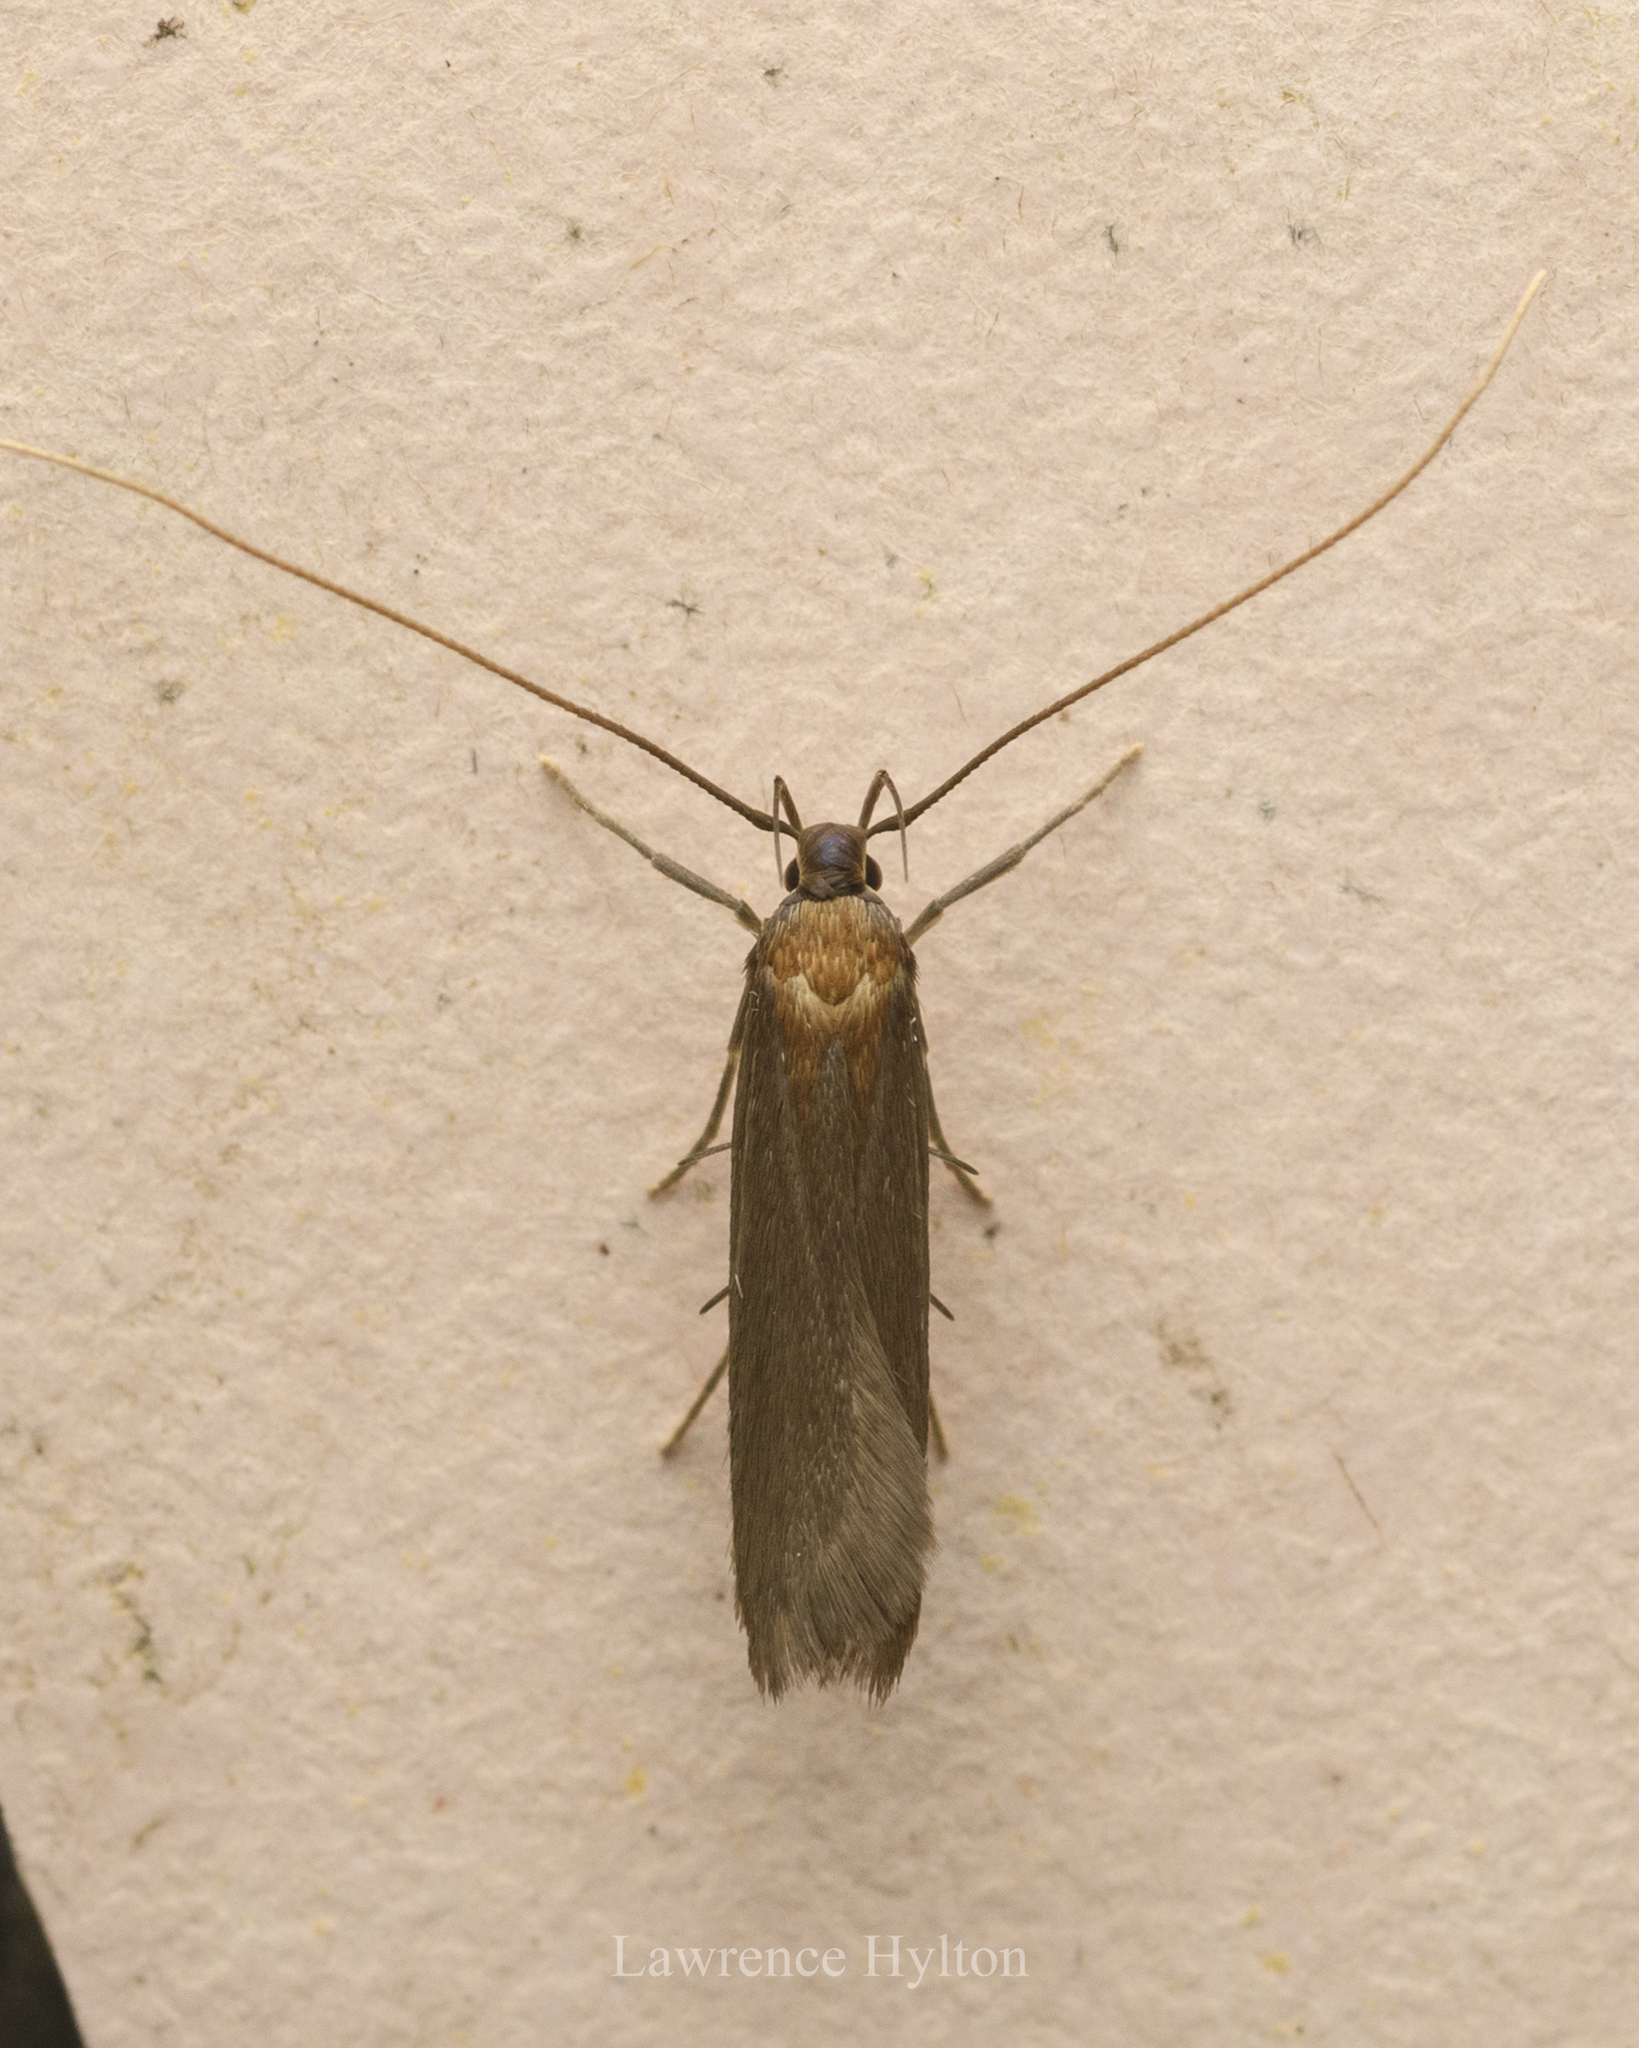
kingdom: Animalia
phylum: Arthropoda
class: Insecta
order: Lepidoptera
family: Lecithoceridae
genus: Tegenocharis
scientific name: Tegenocharis tenebrans
